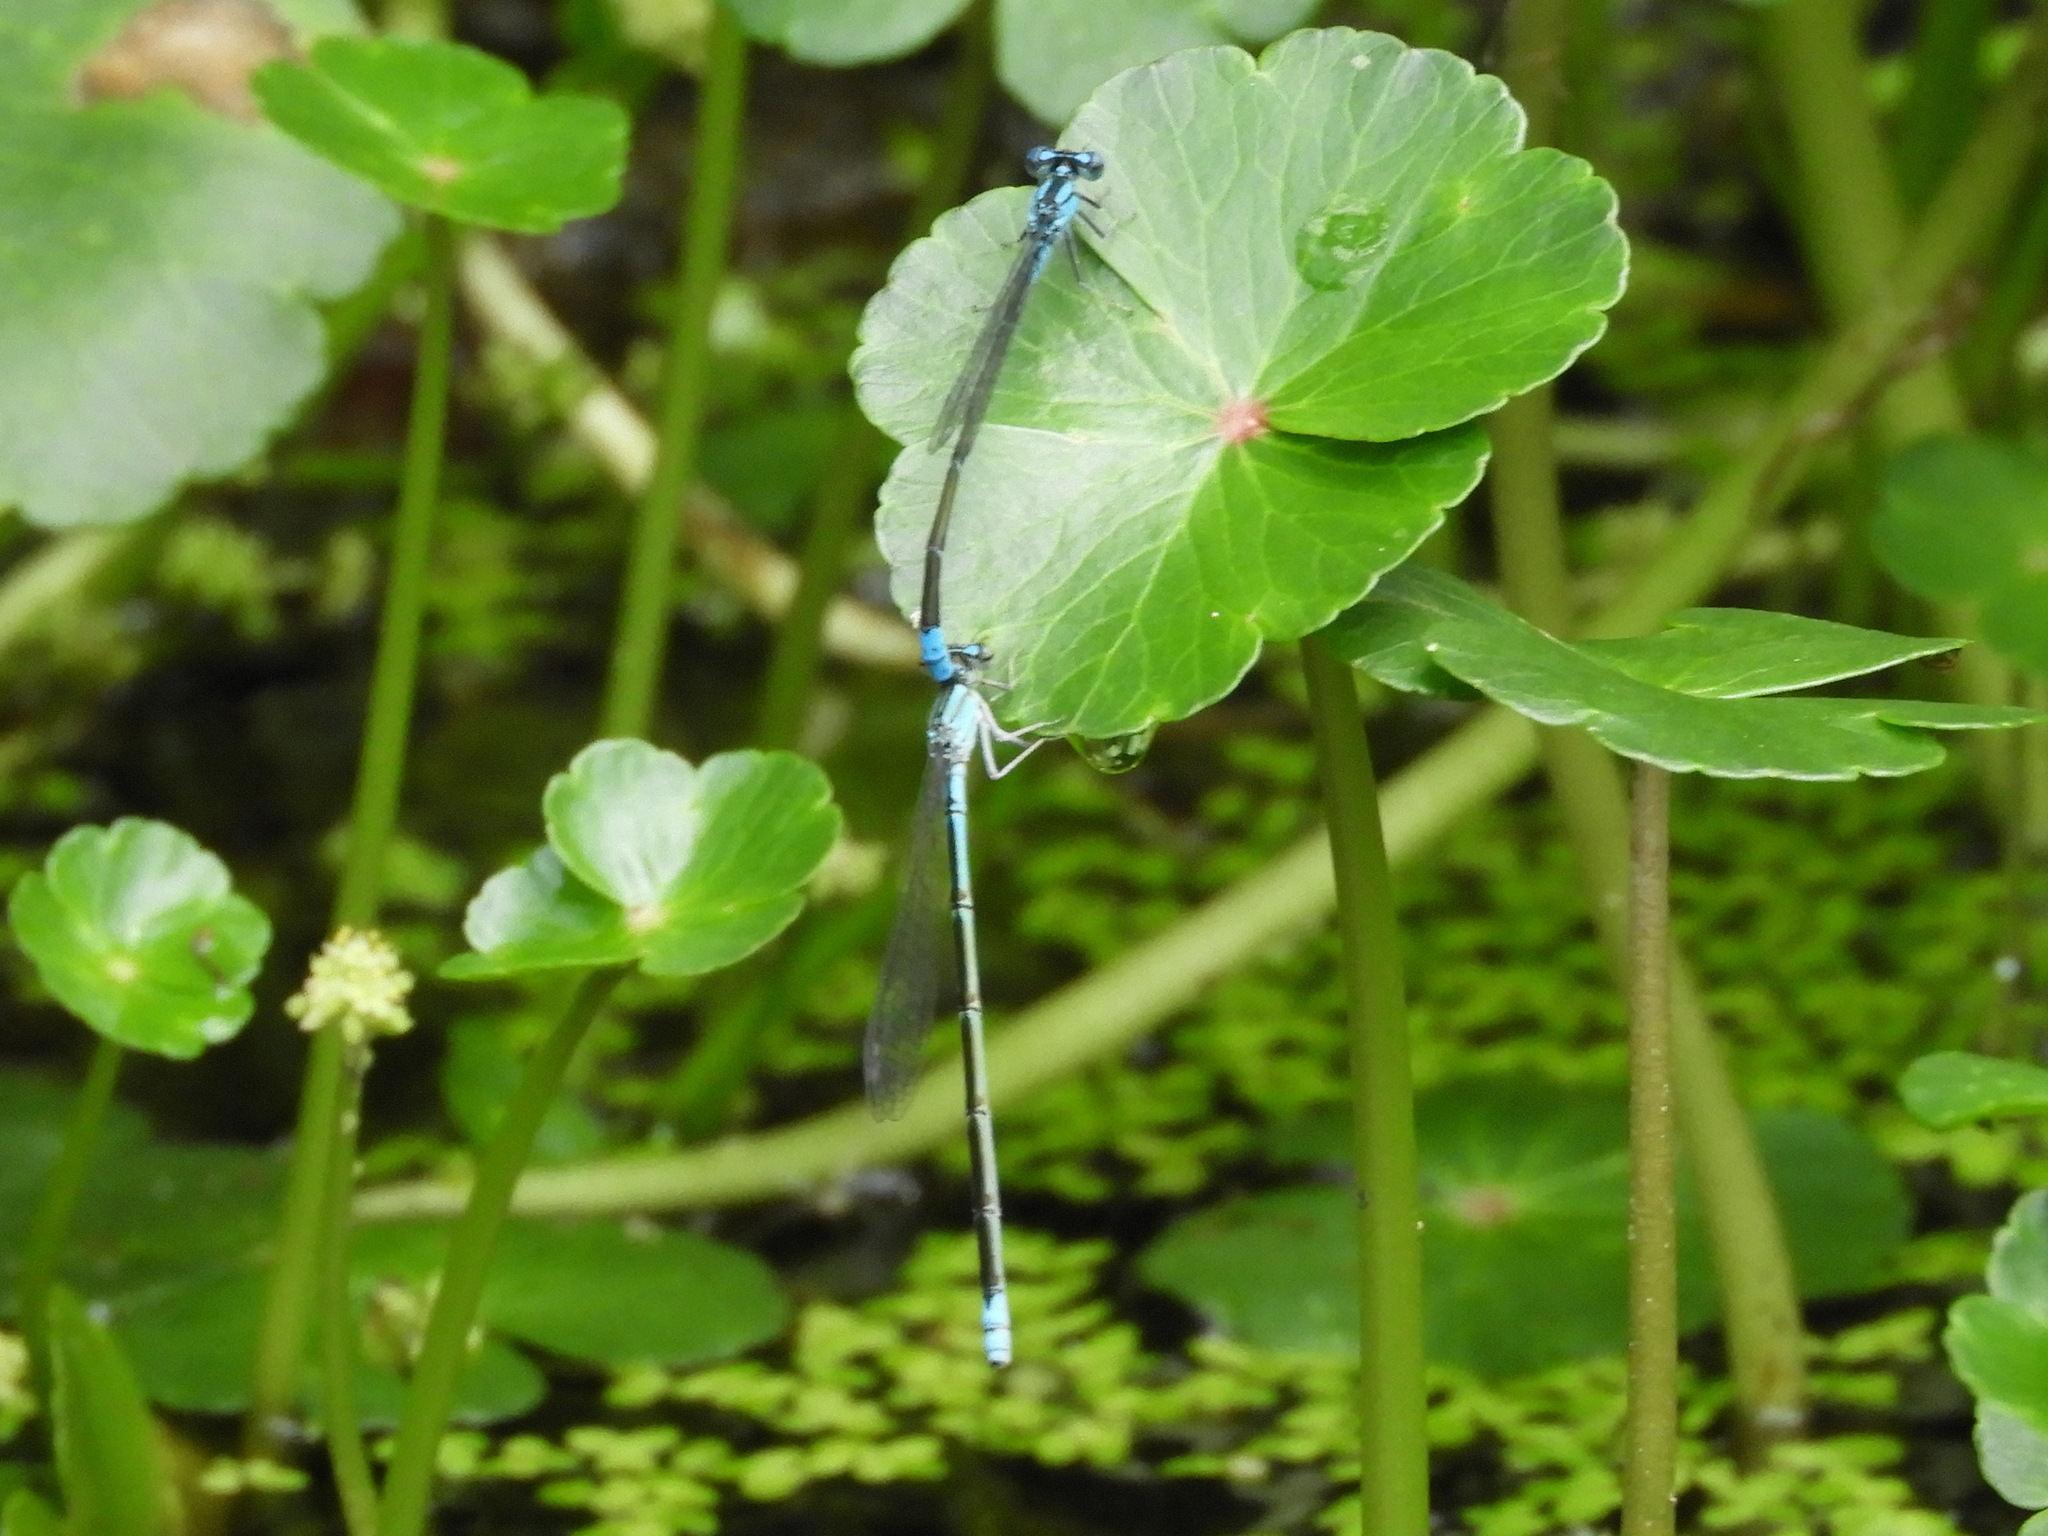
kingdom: Animalia
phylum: Arthropoda
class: Insecta
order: Odonata
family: Coenagrionidae
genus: Enallagma
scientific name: Enallagma traviatum
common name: Slender bluet
